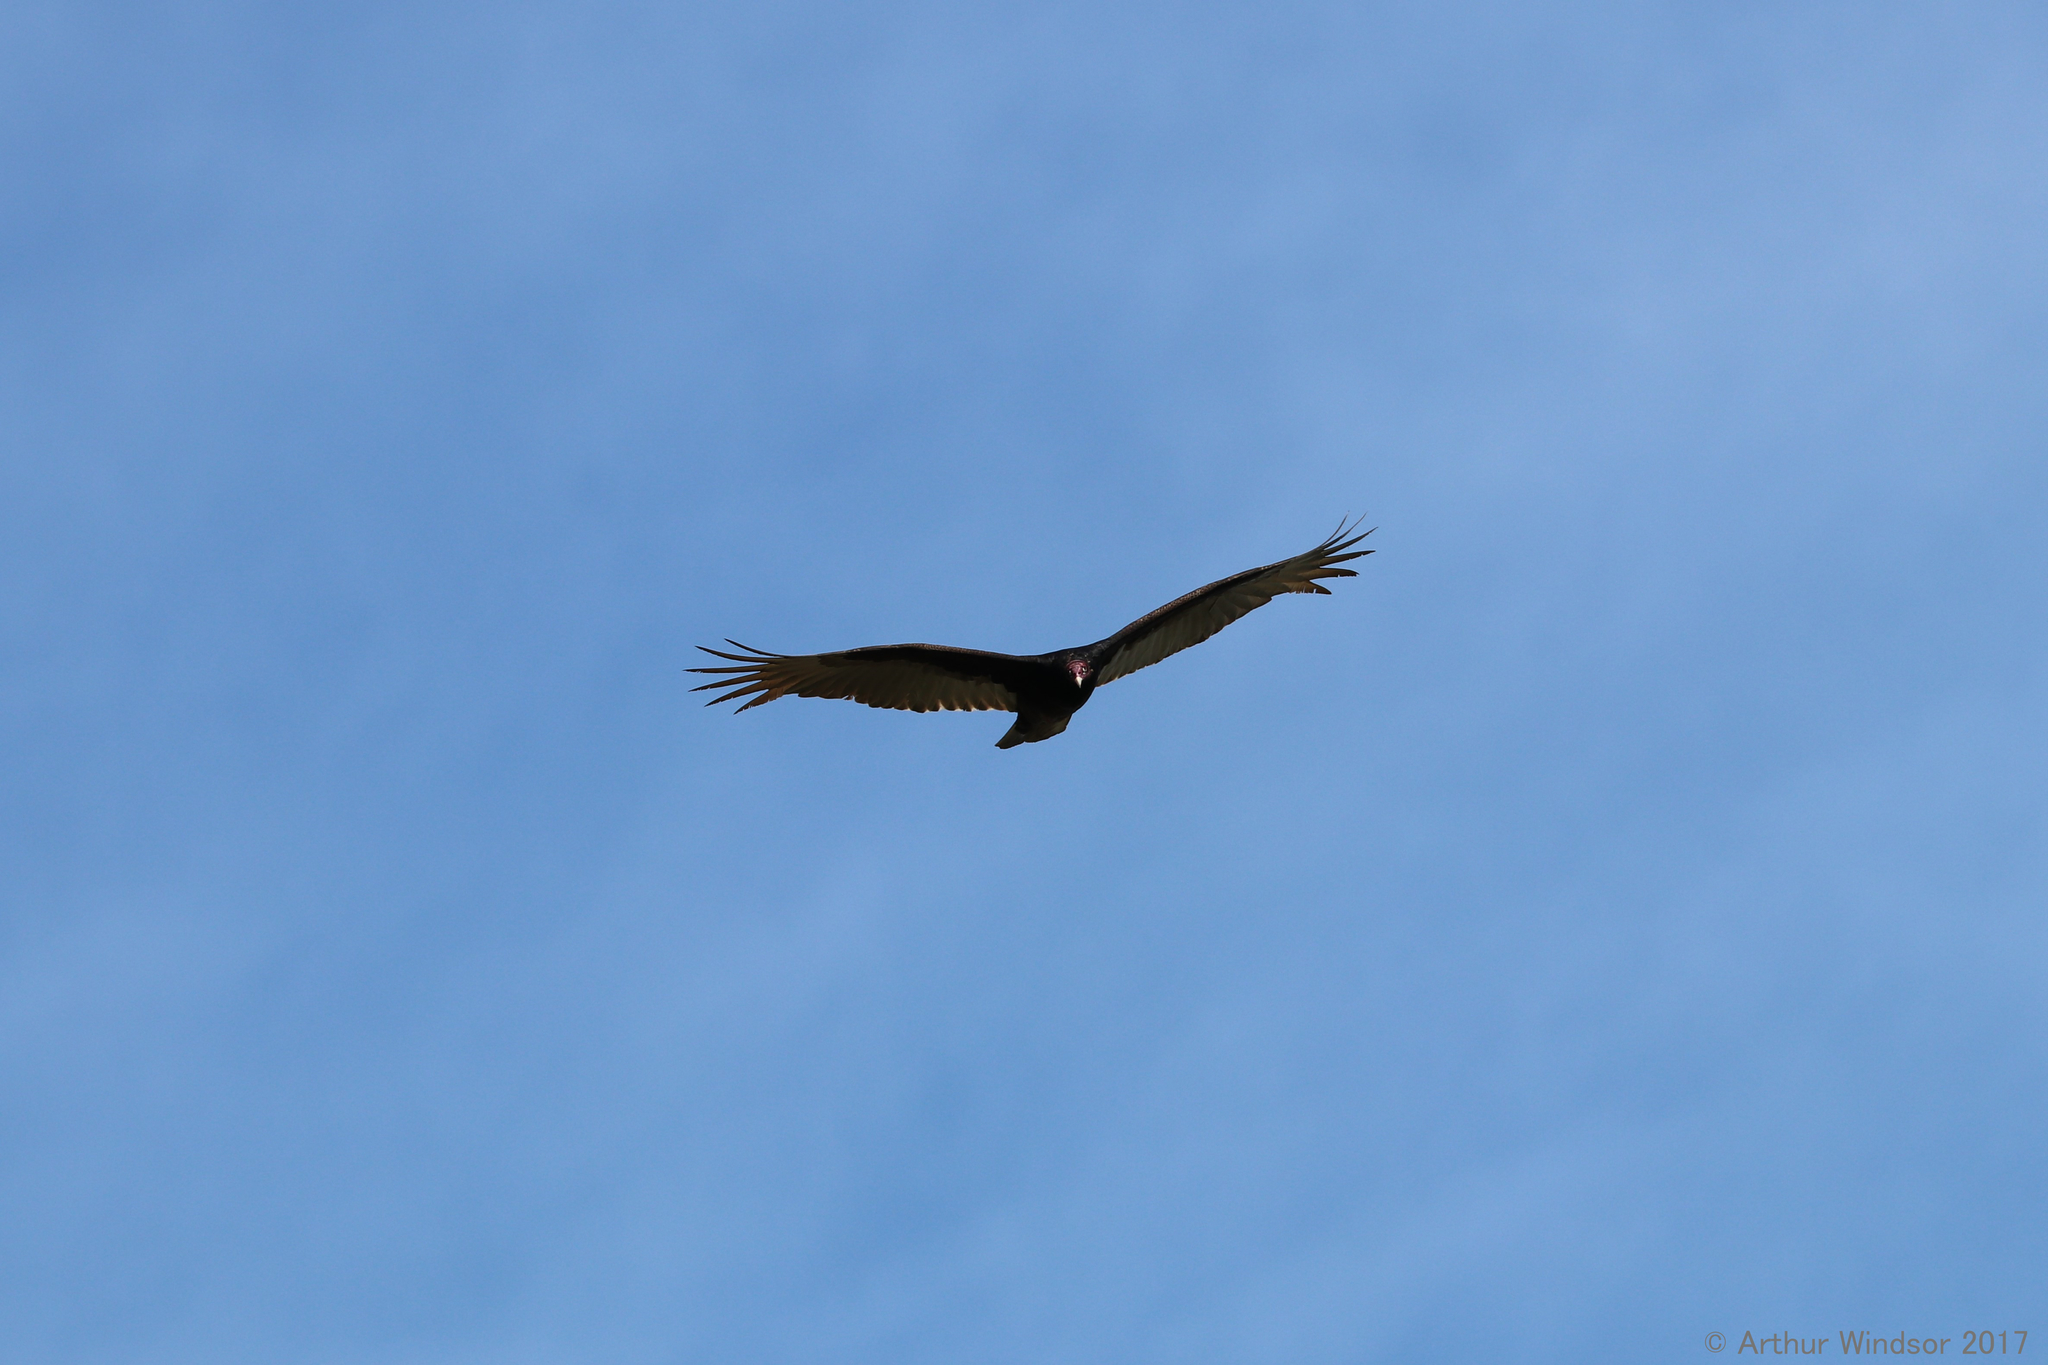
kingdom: Animalia
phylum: Chordata
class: Aves
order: Accipitriformes
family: Cathartidae
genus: Cathartes
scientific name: Cathartes aura
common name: Turkey vulture
